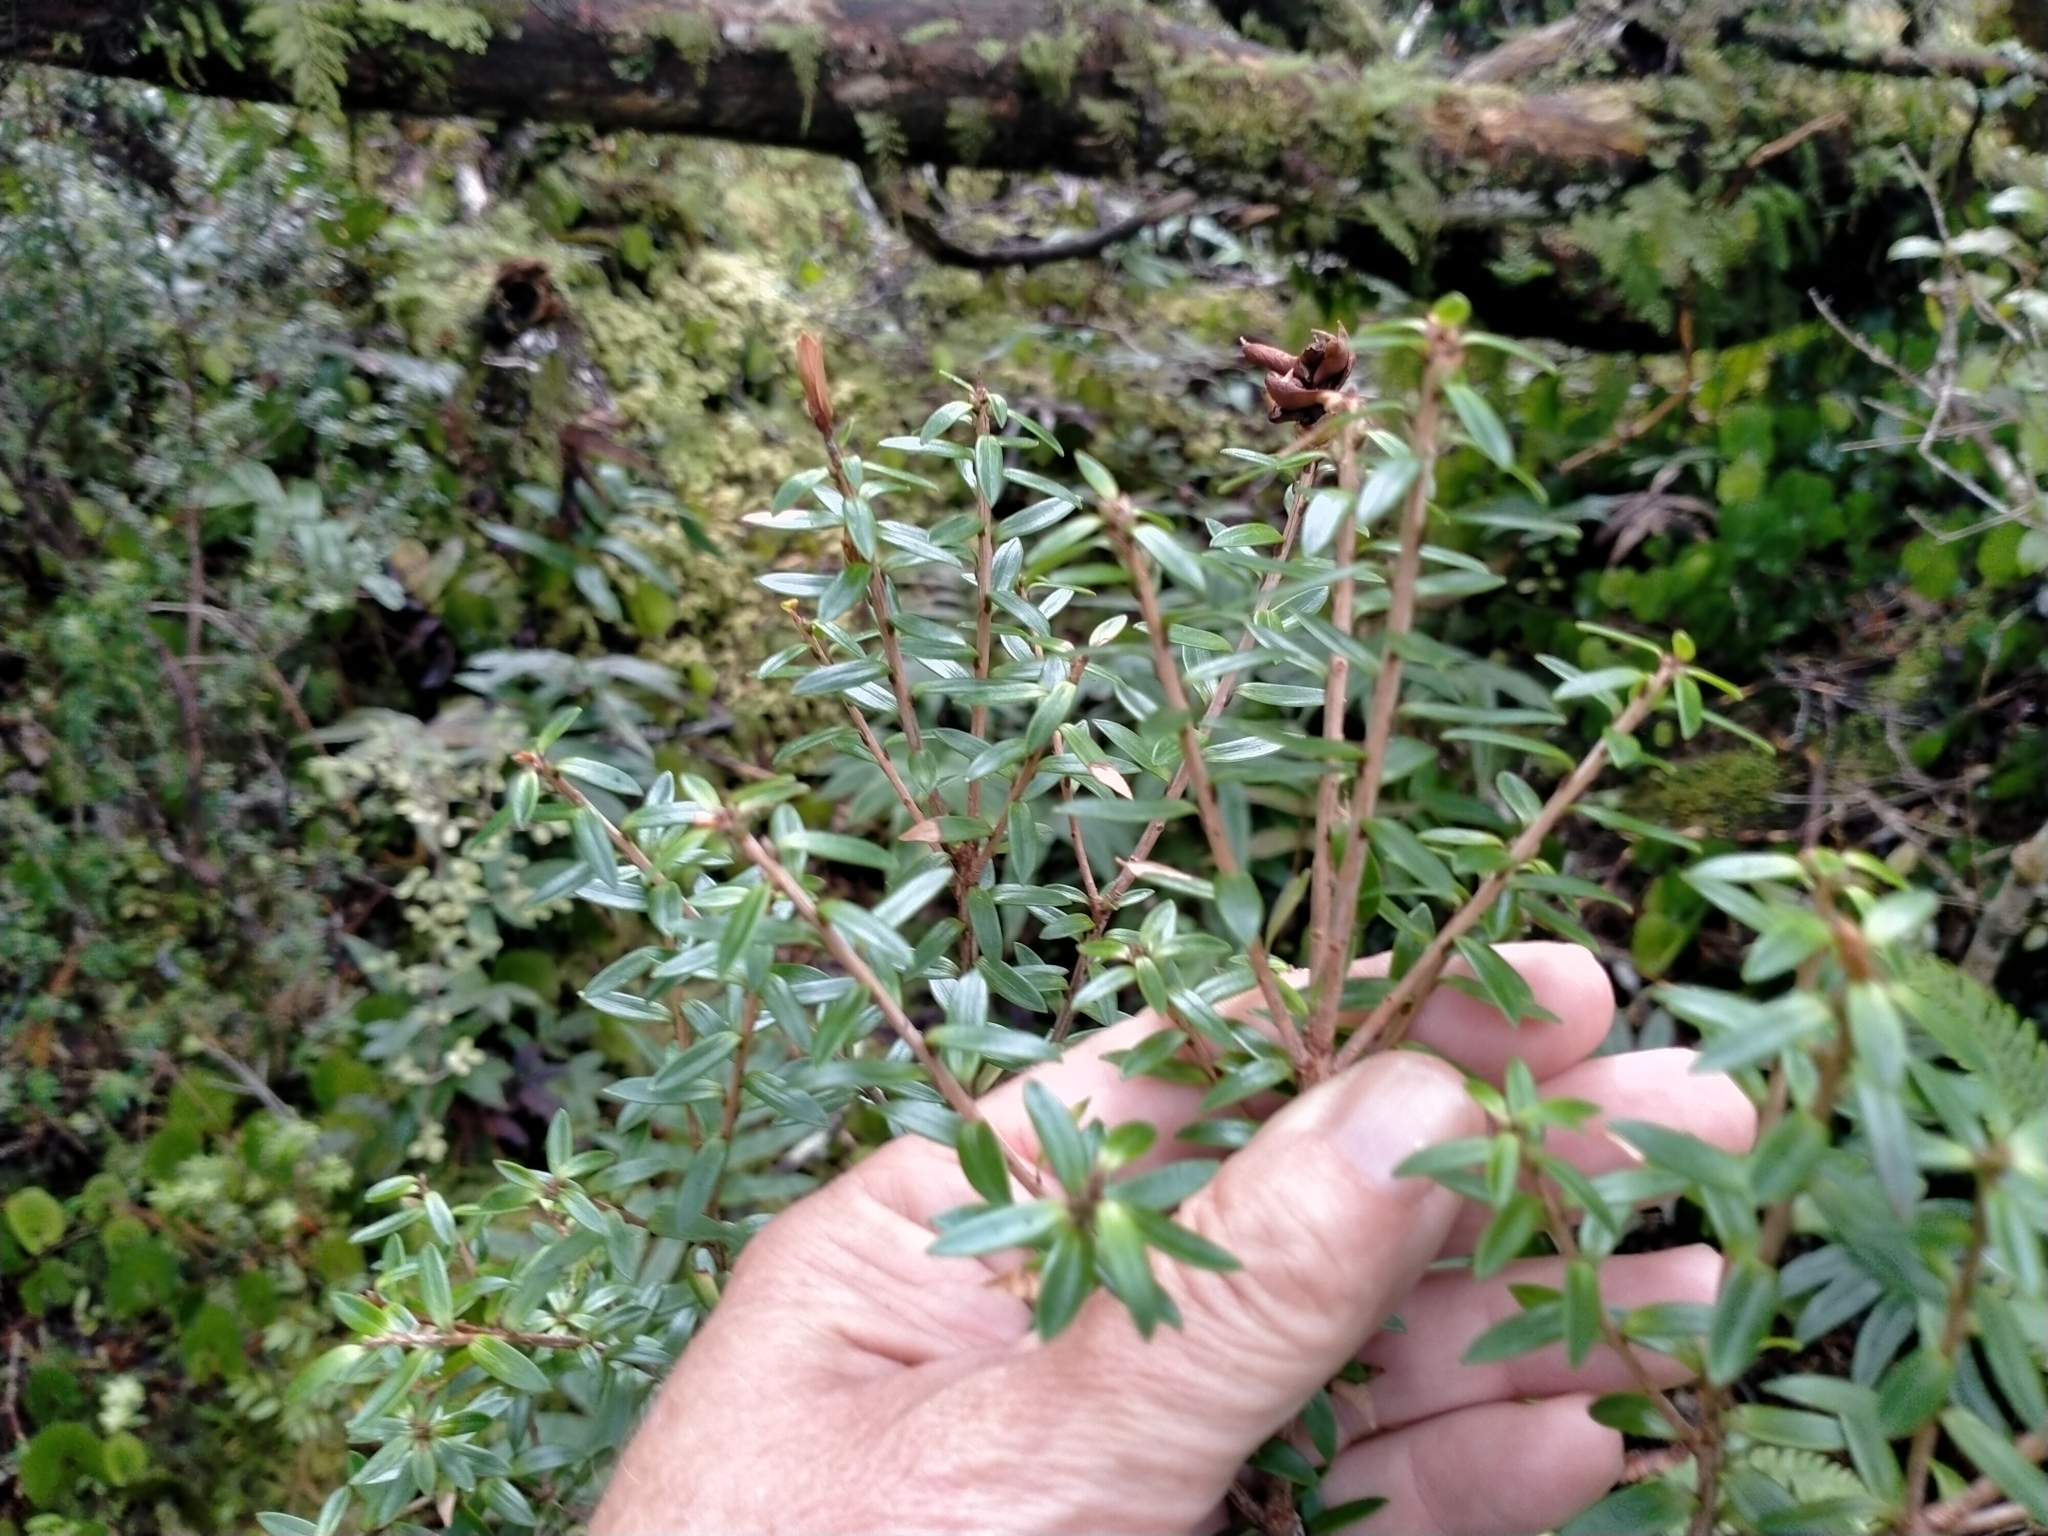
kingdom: Plantae
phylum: Tracheophyta
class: Magnoliopsida
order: Ericales
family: Ericaceae
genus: Archeria
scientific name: Archeria traversii
